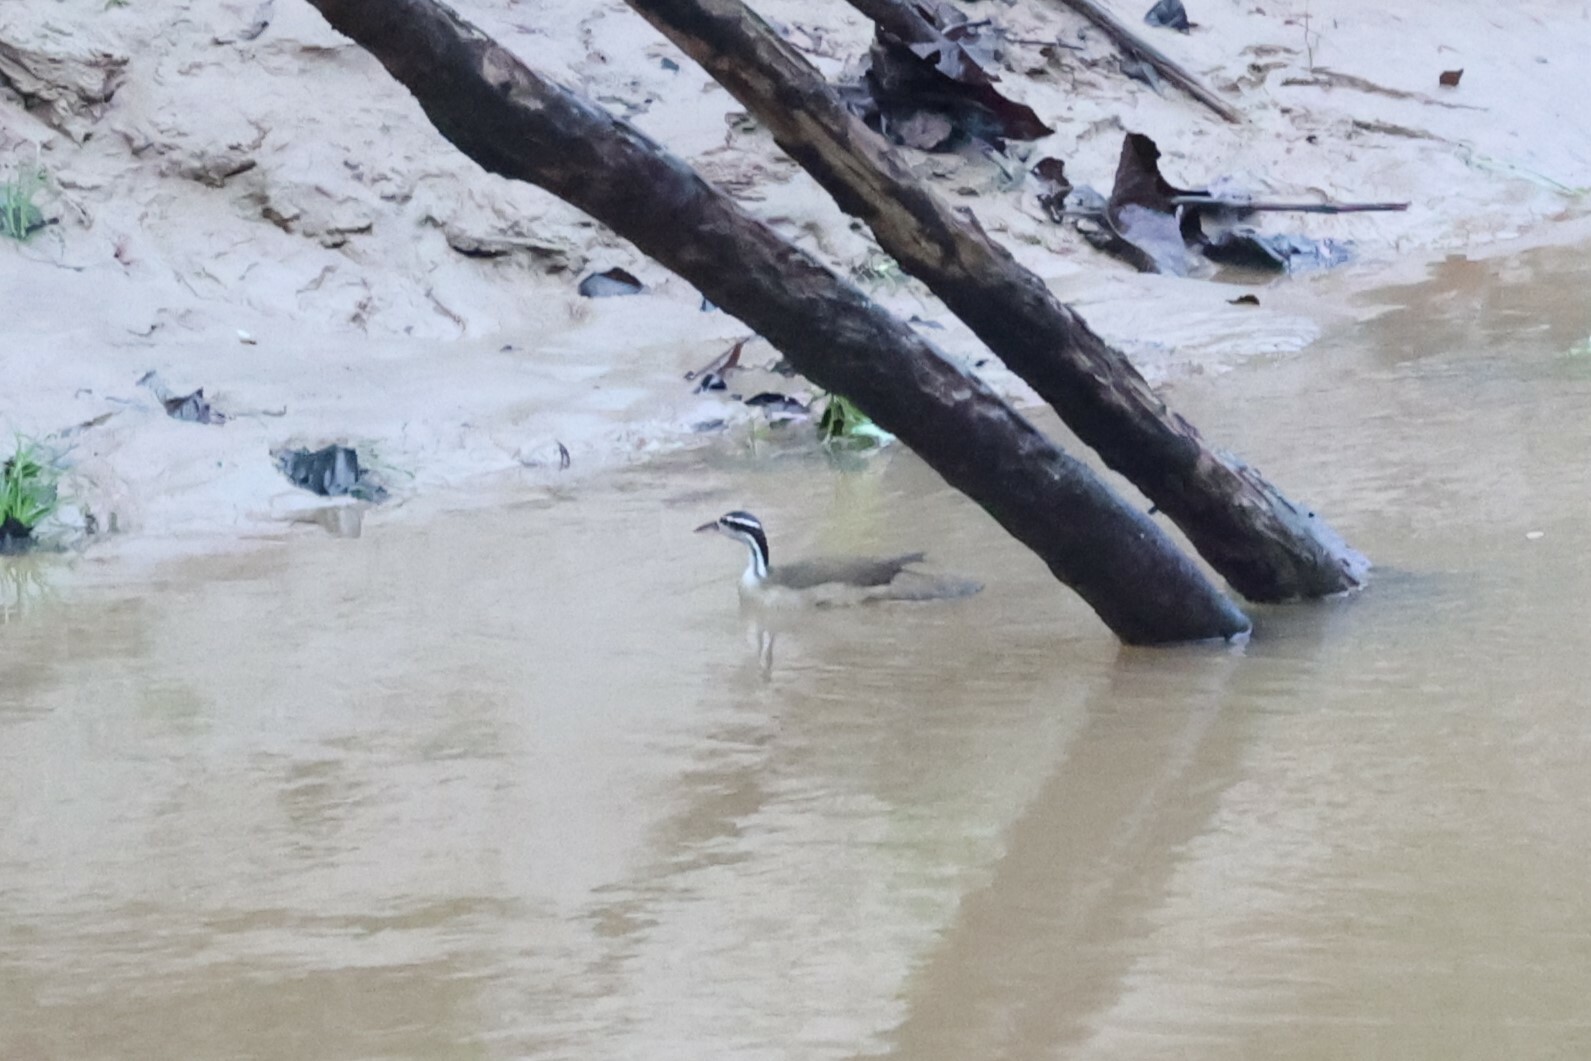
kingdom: Animalia
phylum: Chordata
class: Aves
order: Gruiformes
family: Heliornithidae
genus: Heliornis
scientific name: Heliornis fulica
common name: Sungrebe
